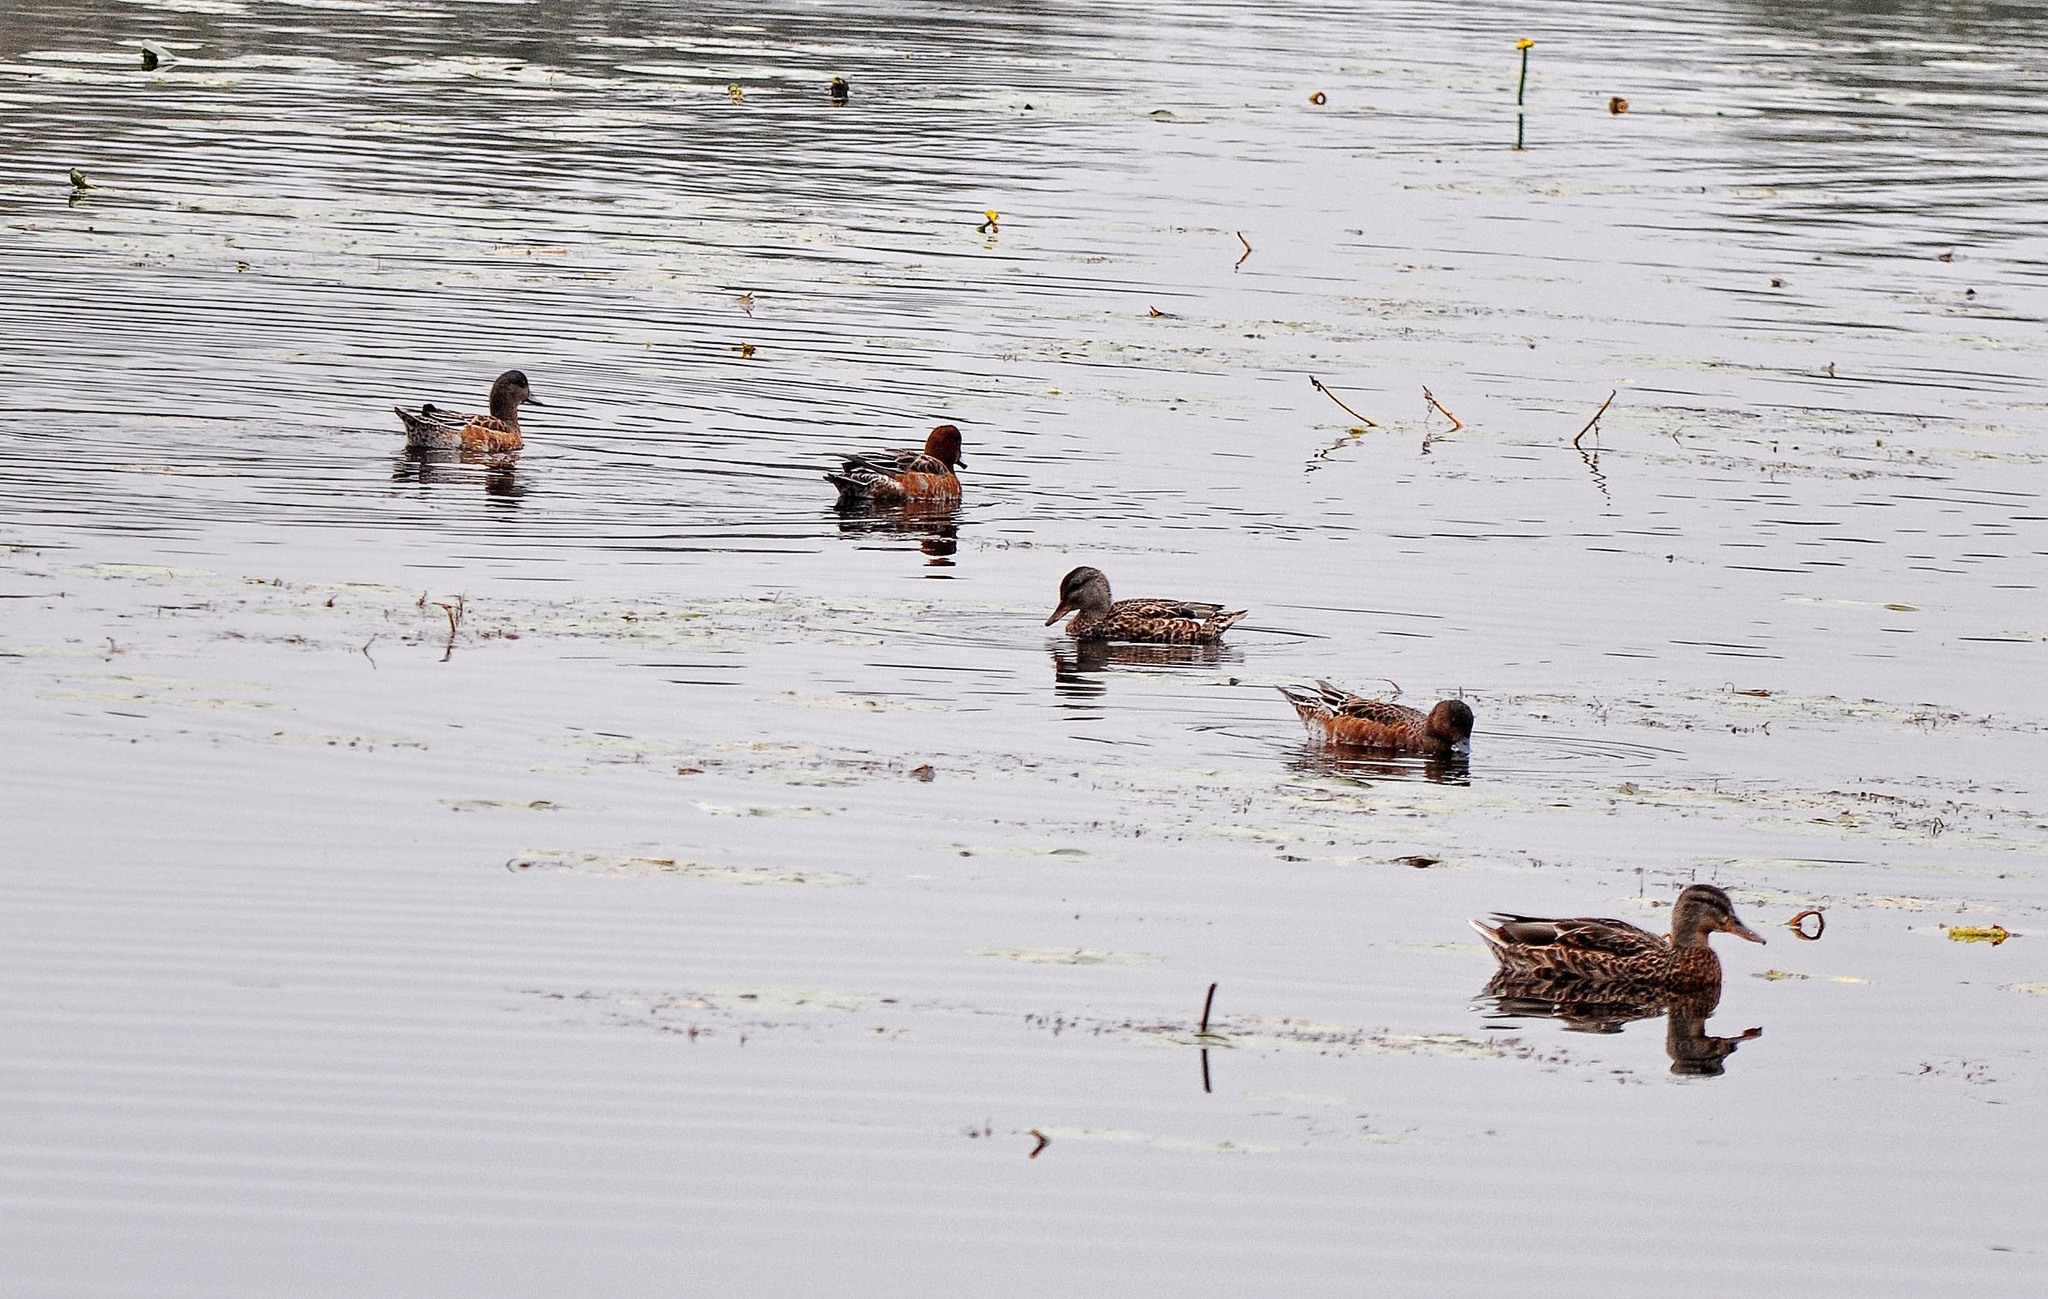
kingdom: Animalia
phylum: Chordata
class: Aves
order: Anseriformes
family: Anatidae
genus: Mareca
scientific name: Mareca penelope
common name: Eurasian wigeon
